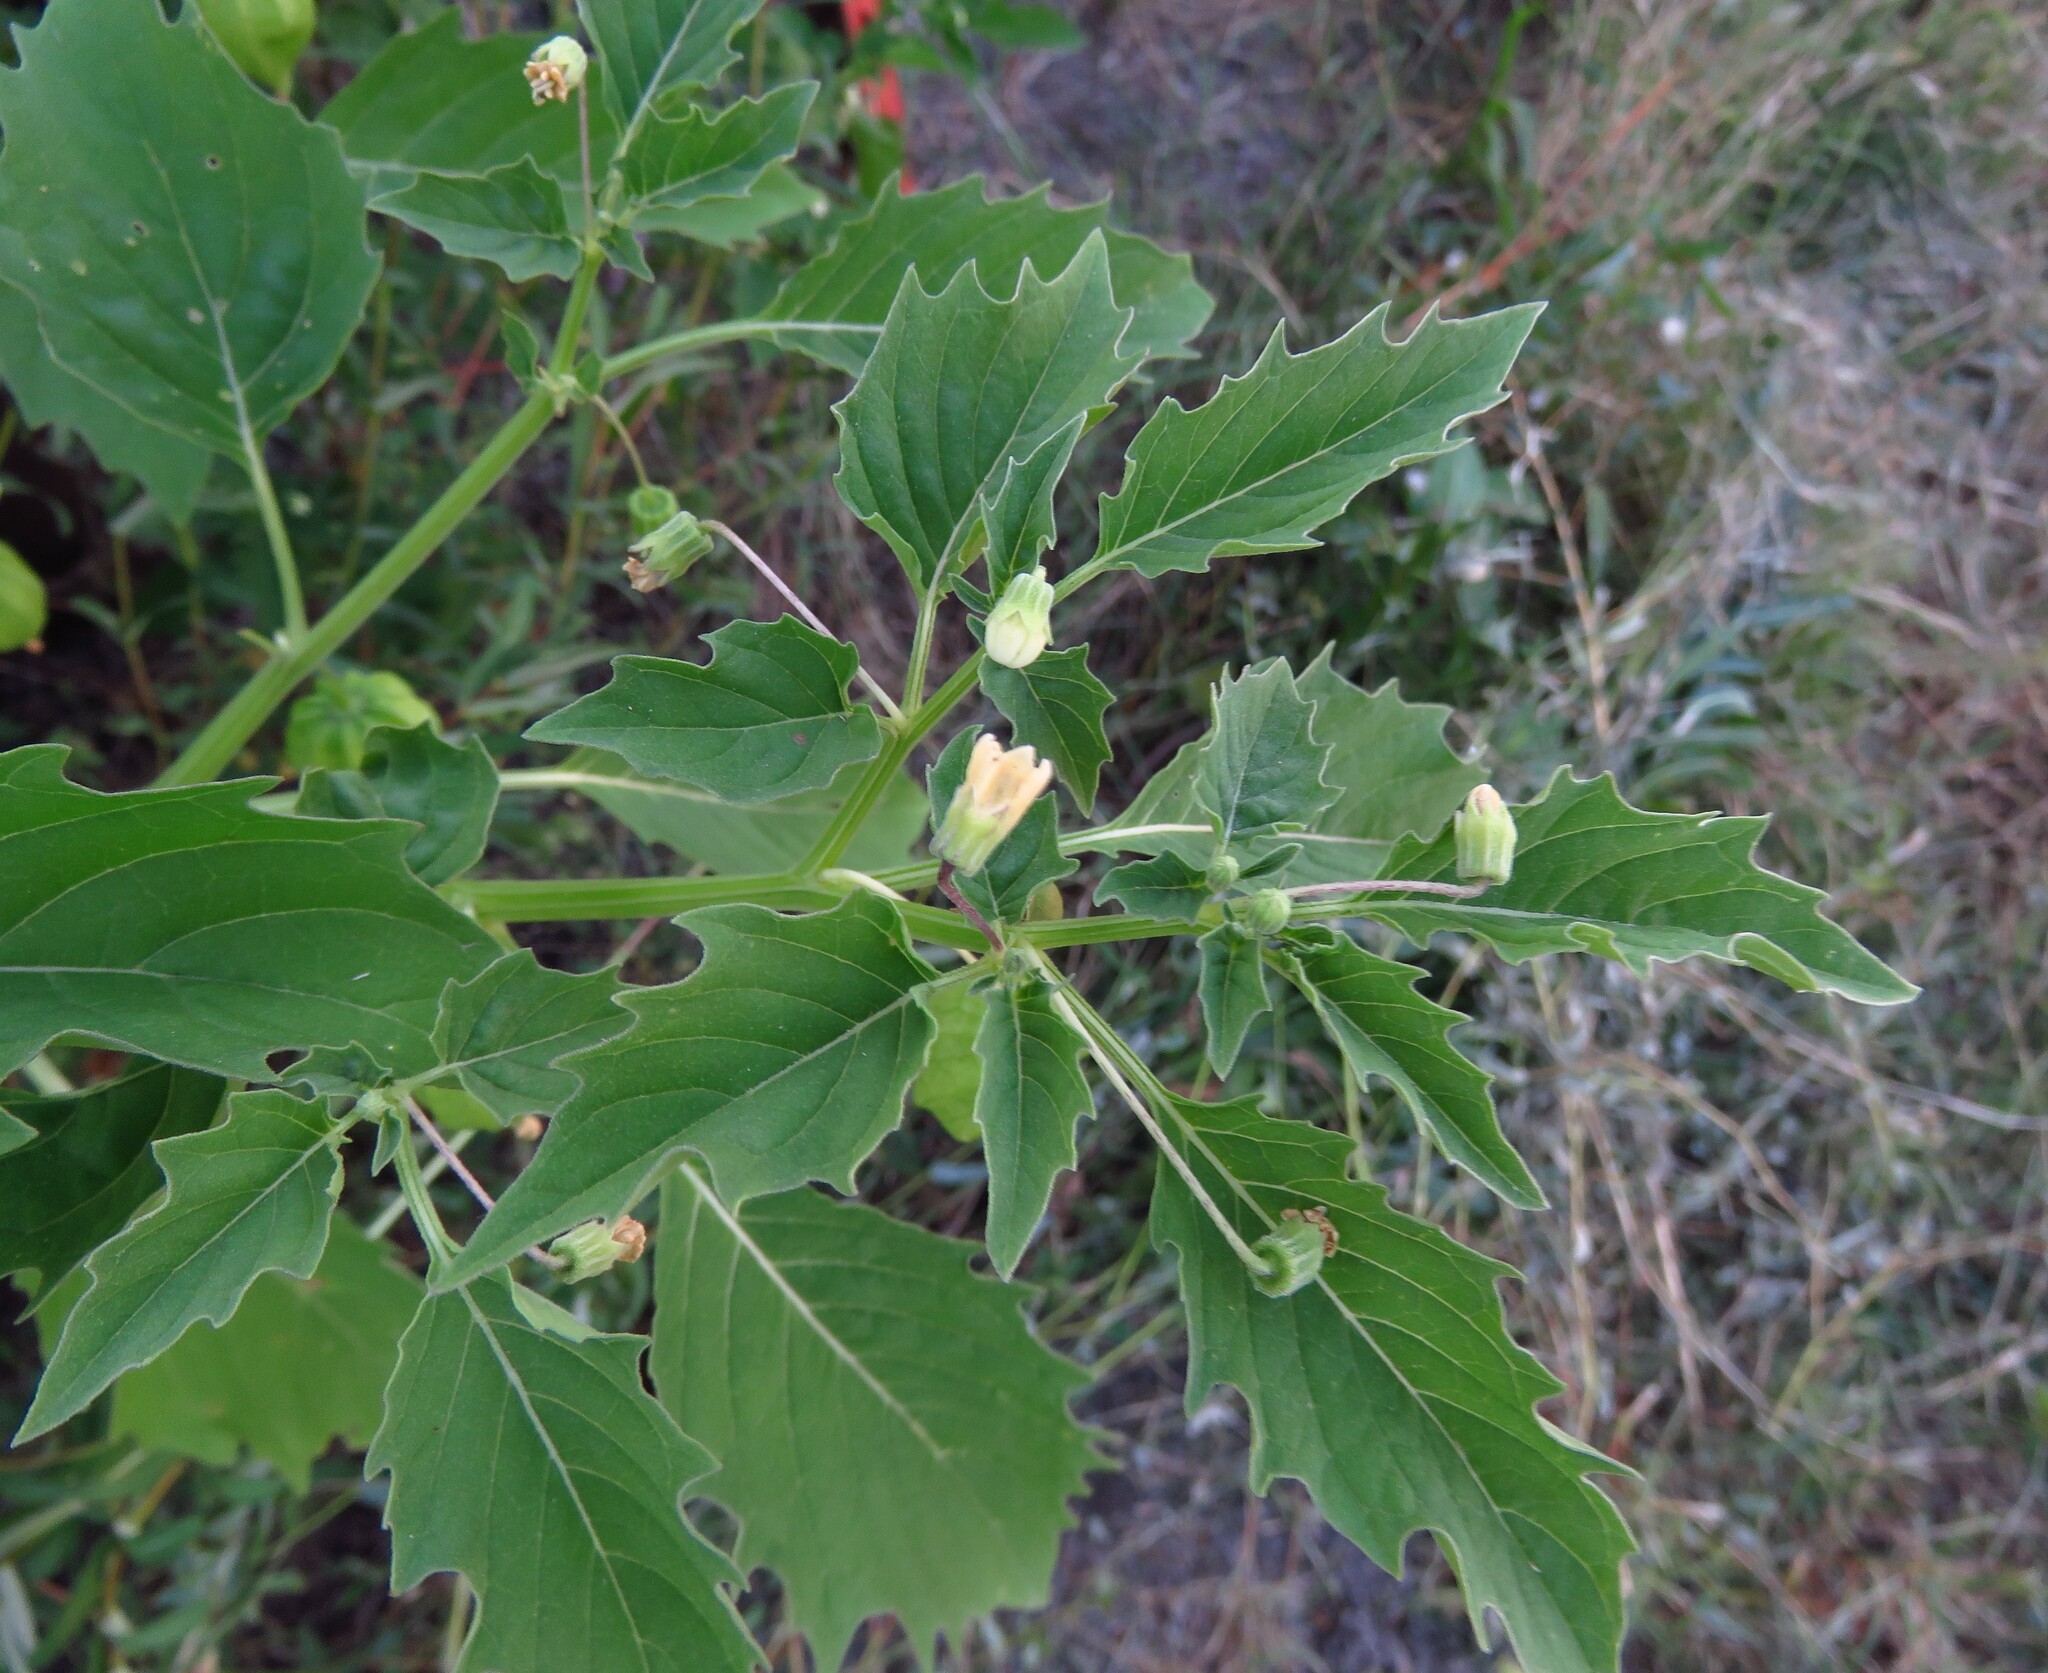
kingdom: Plantae
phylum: Tracheophyta
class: Magnoliopsida
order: Solanales
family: Solanaceae
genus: Physalis
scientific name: Physalis angulata
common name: Angular winter-cherry
